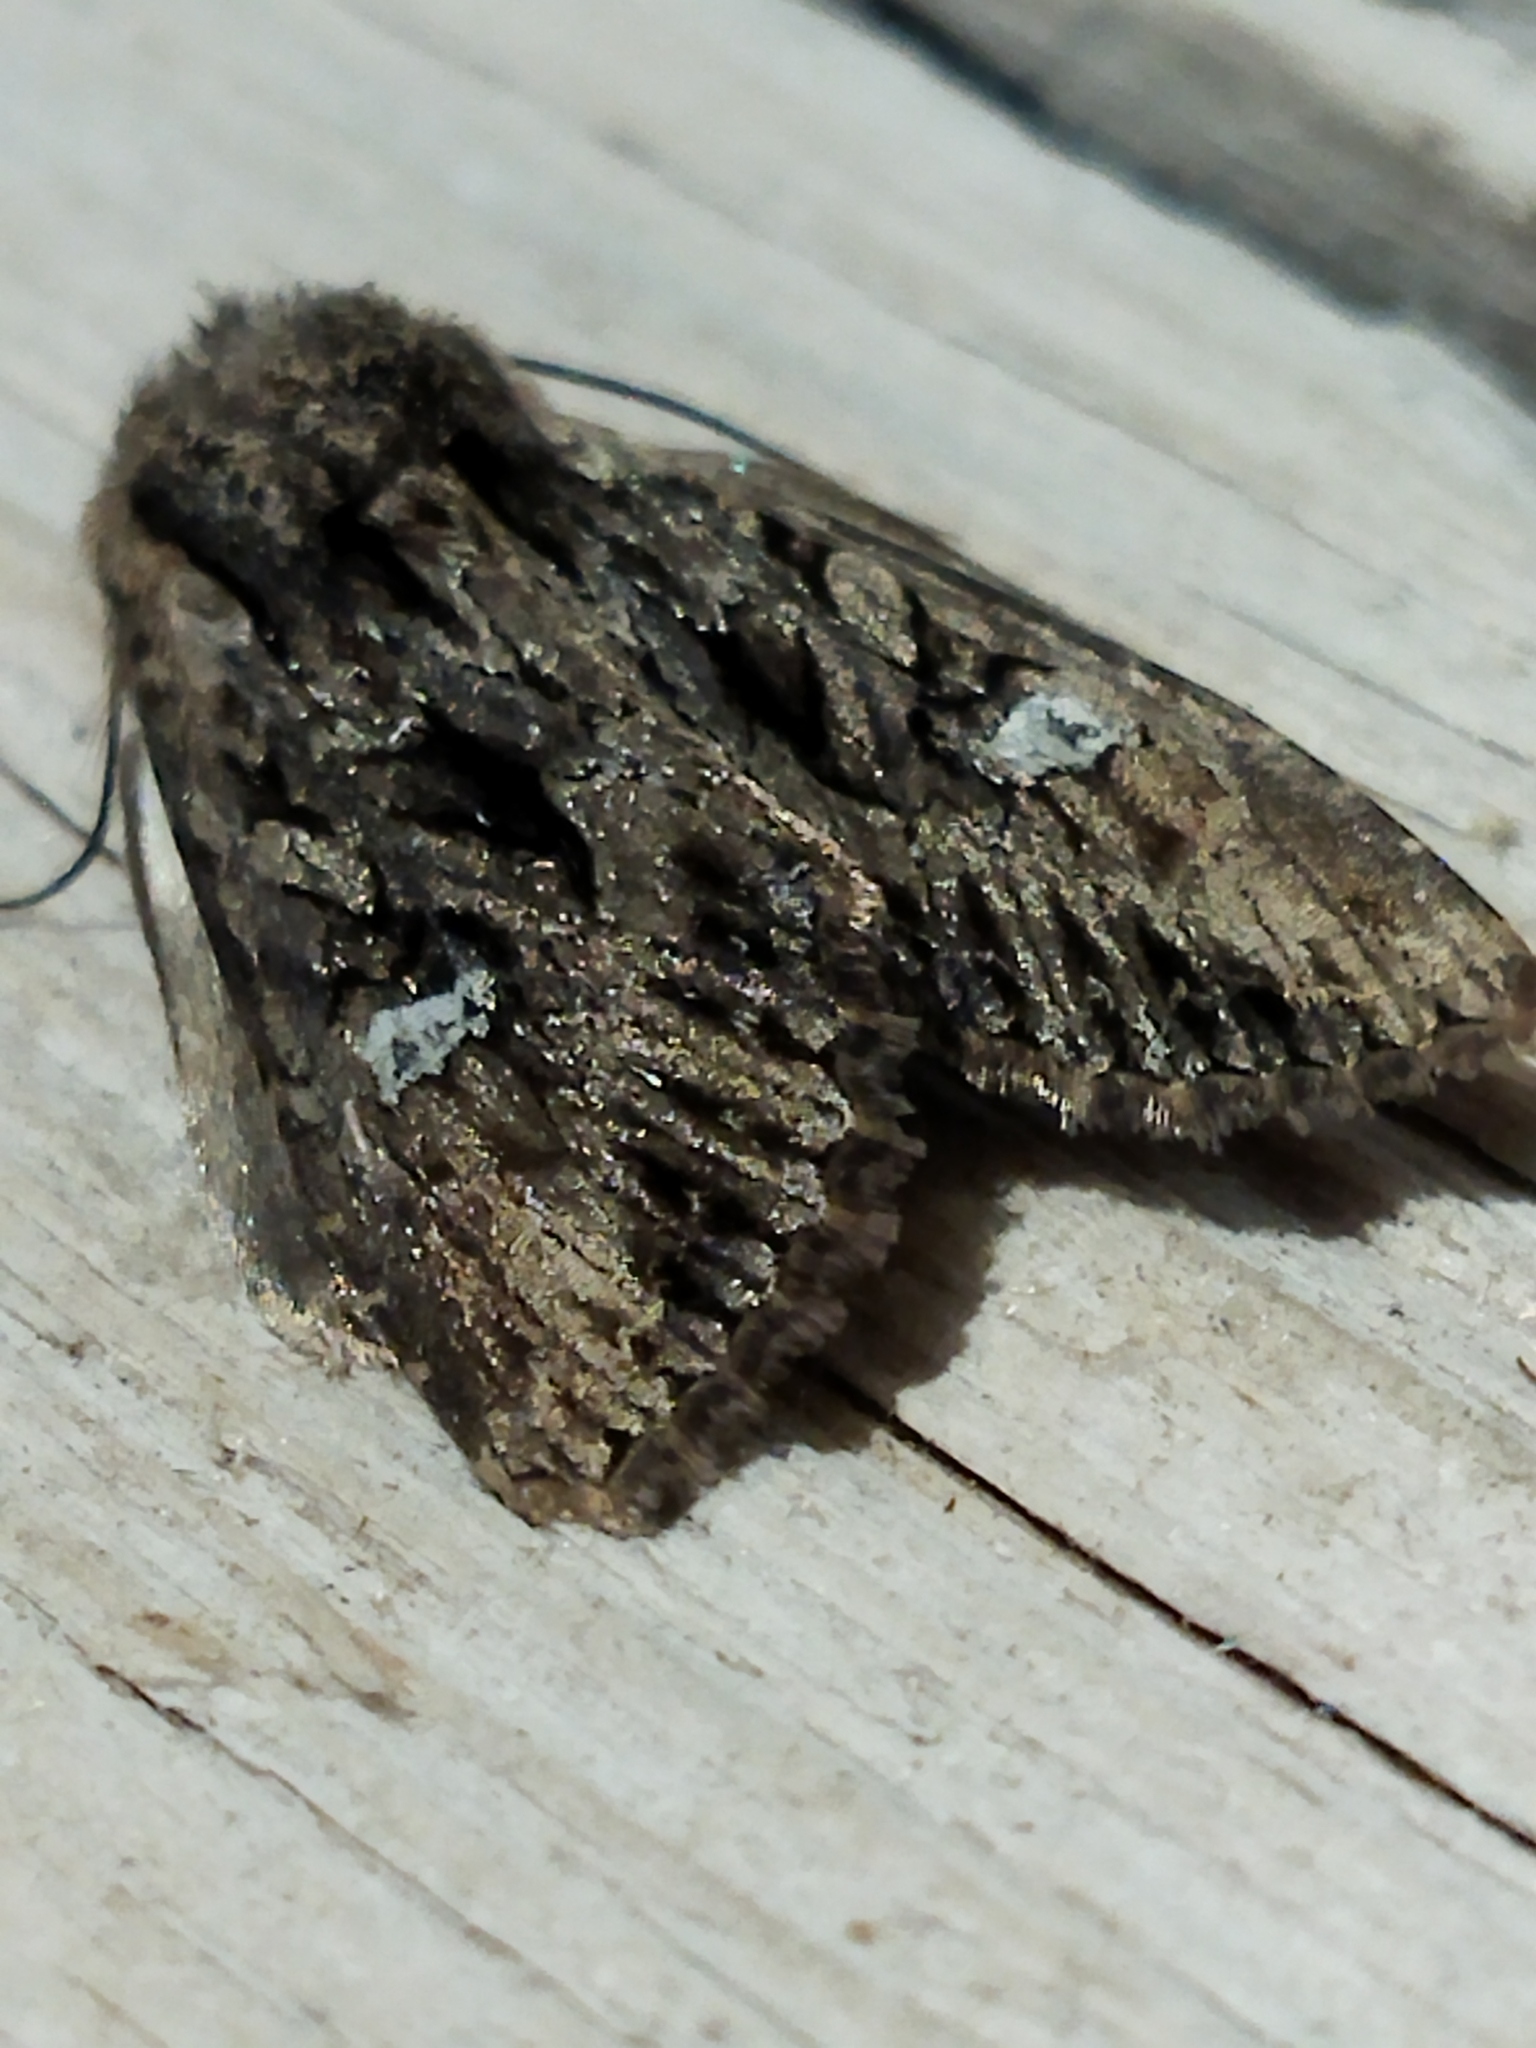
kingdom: Animalia
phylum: Arthropoda
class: Insecta
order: Lepidoptera
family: Noctuidae
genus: Polymixis
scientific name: Polymixis trisignata
